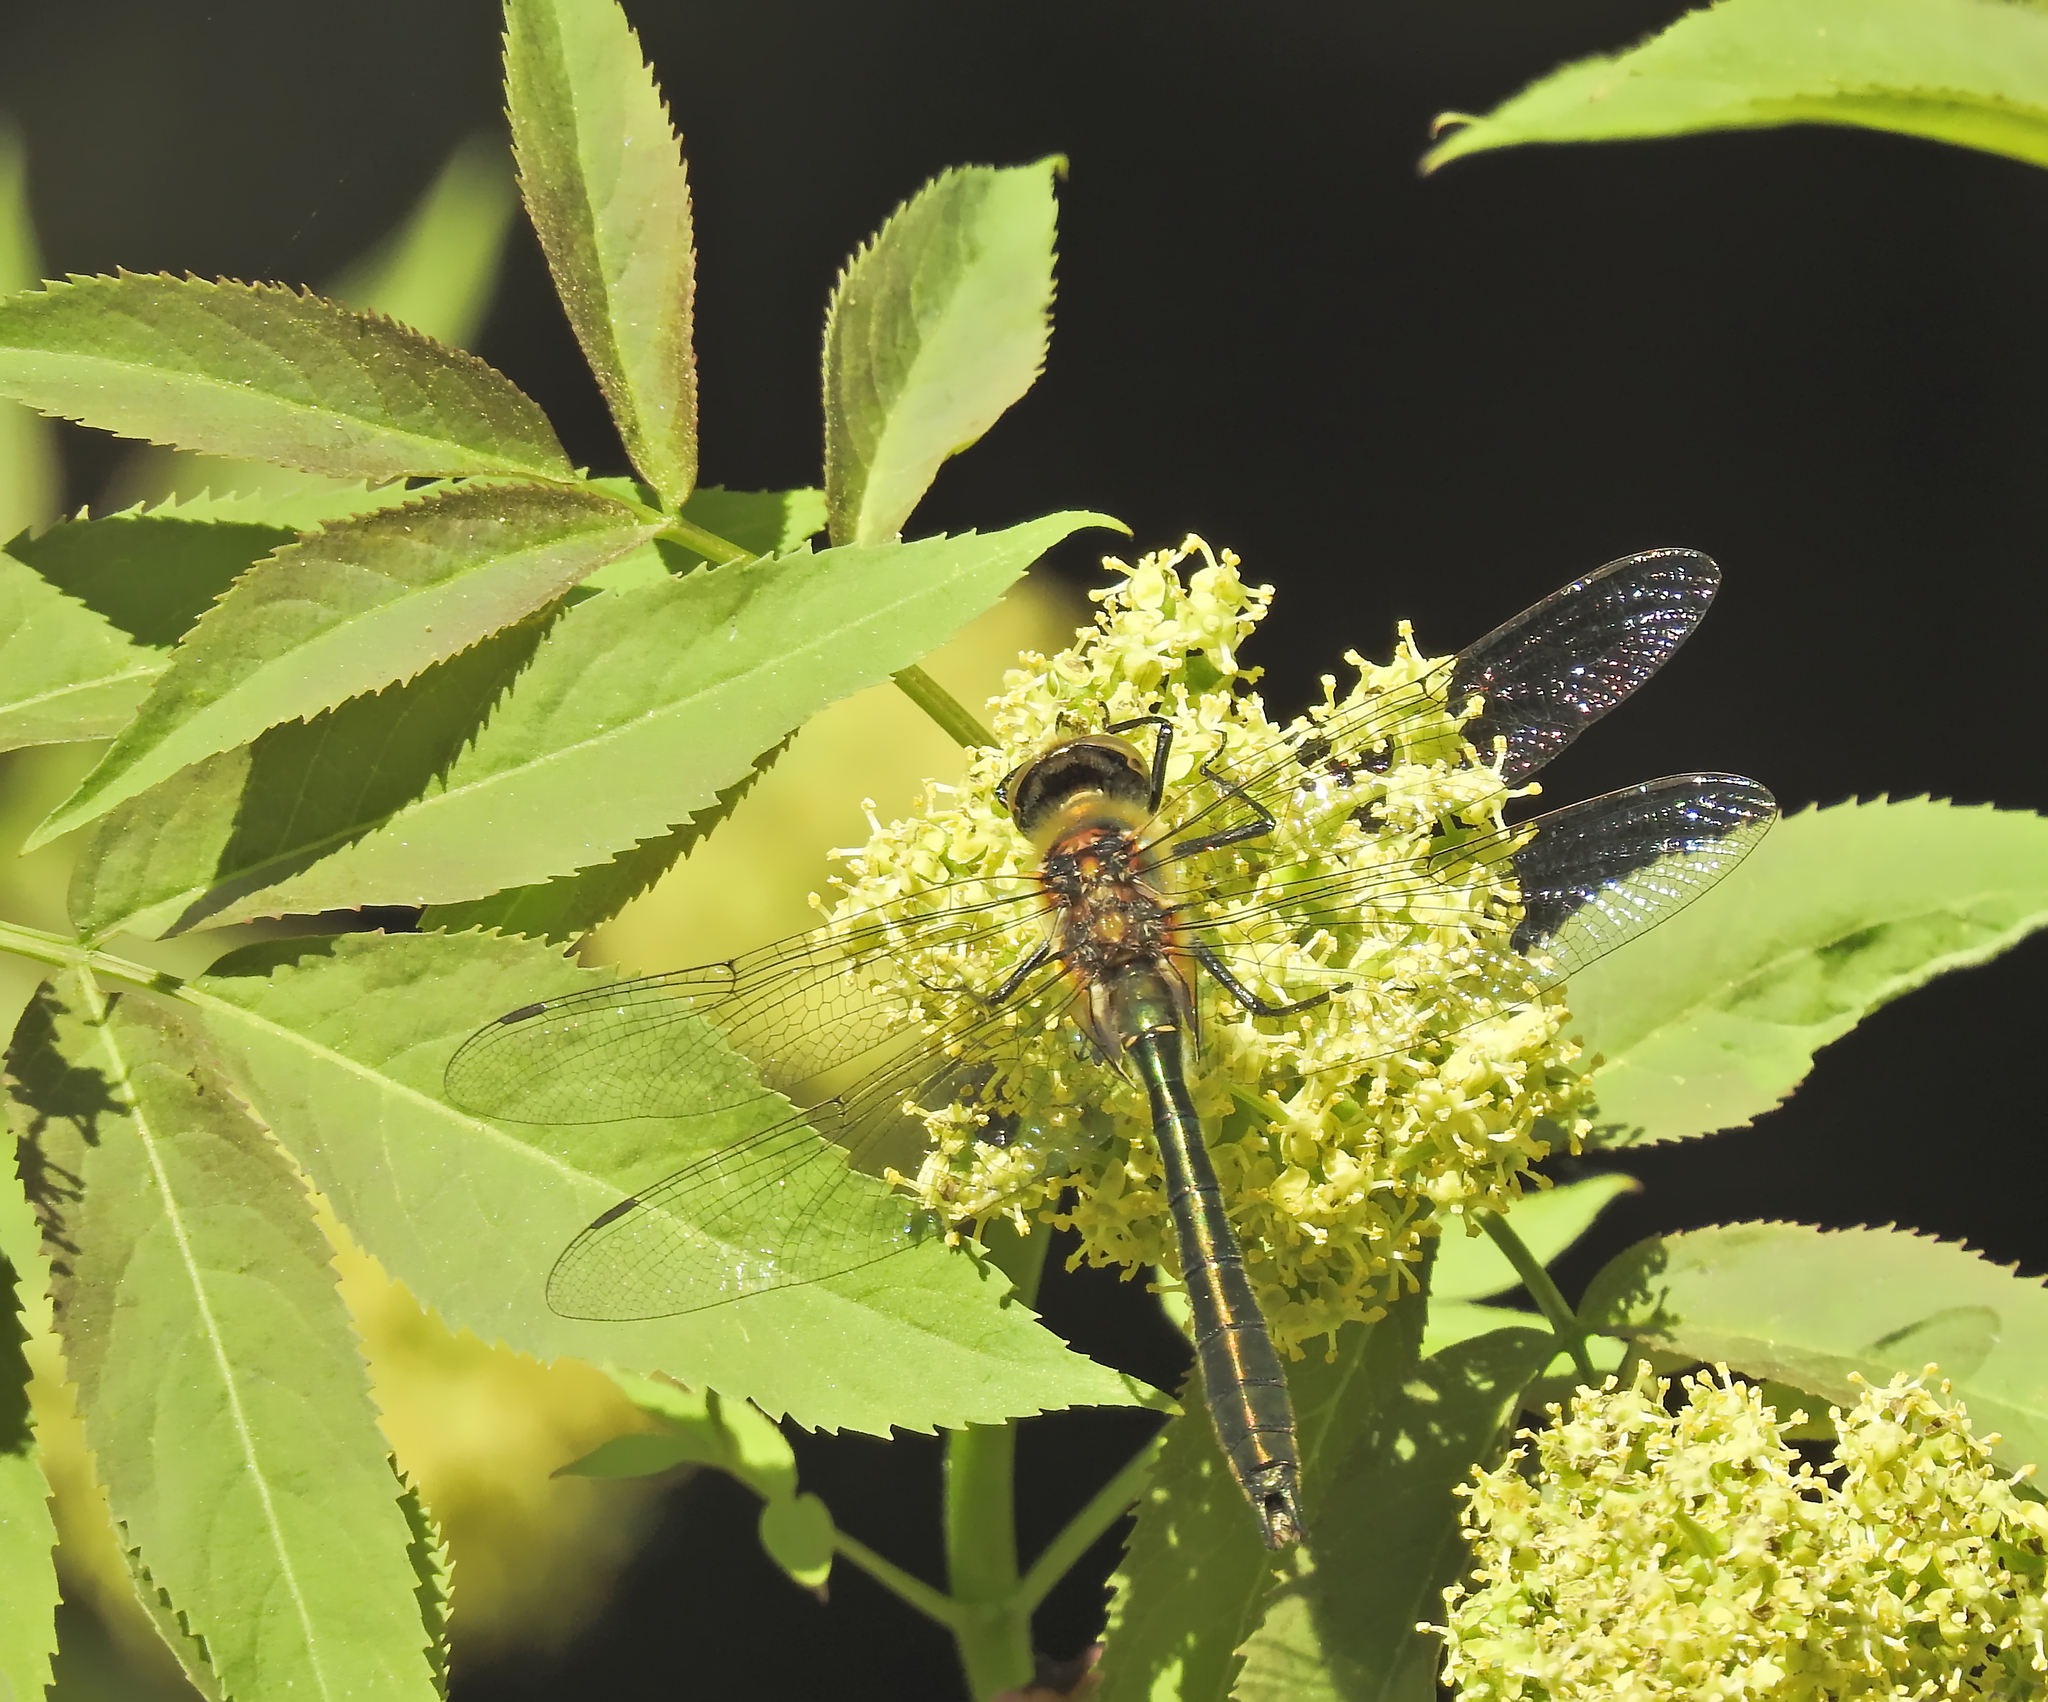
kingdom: Animalia
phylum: Arthropoda
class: Insecta
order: Odonata
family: Corduliidae
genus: Cordulia
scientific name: Cordulia aenea
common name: Downy emerald
